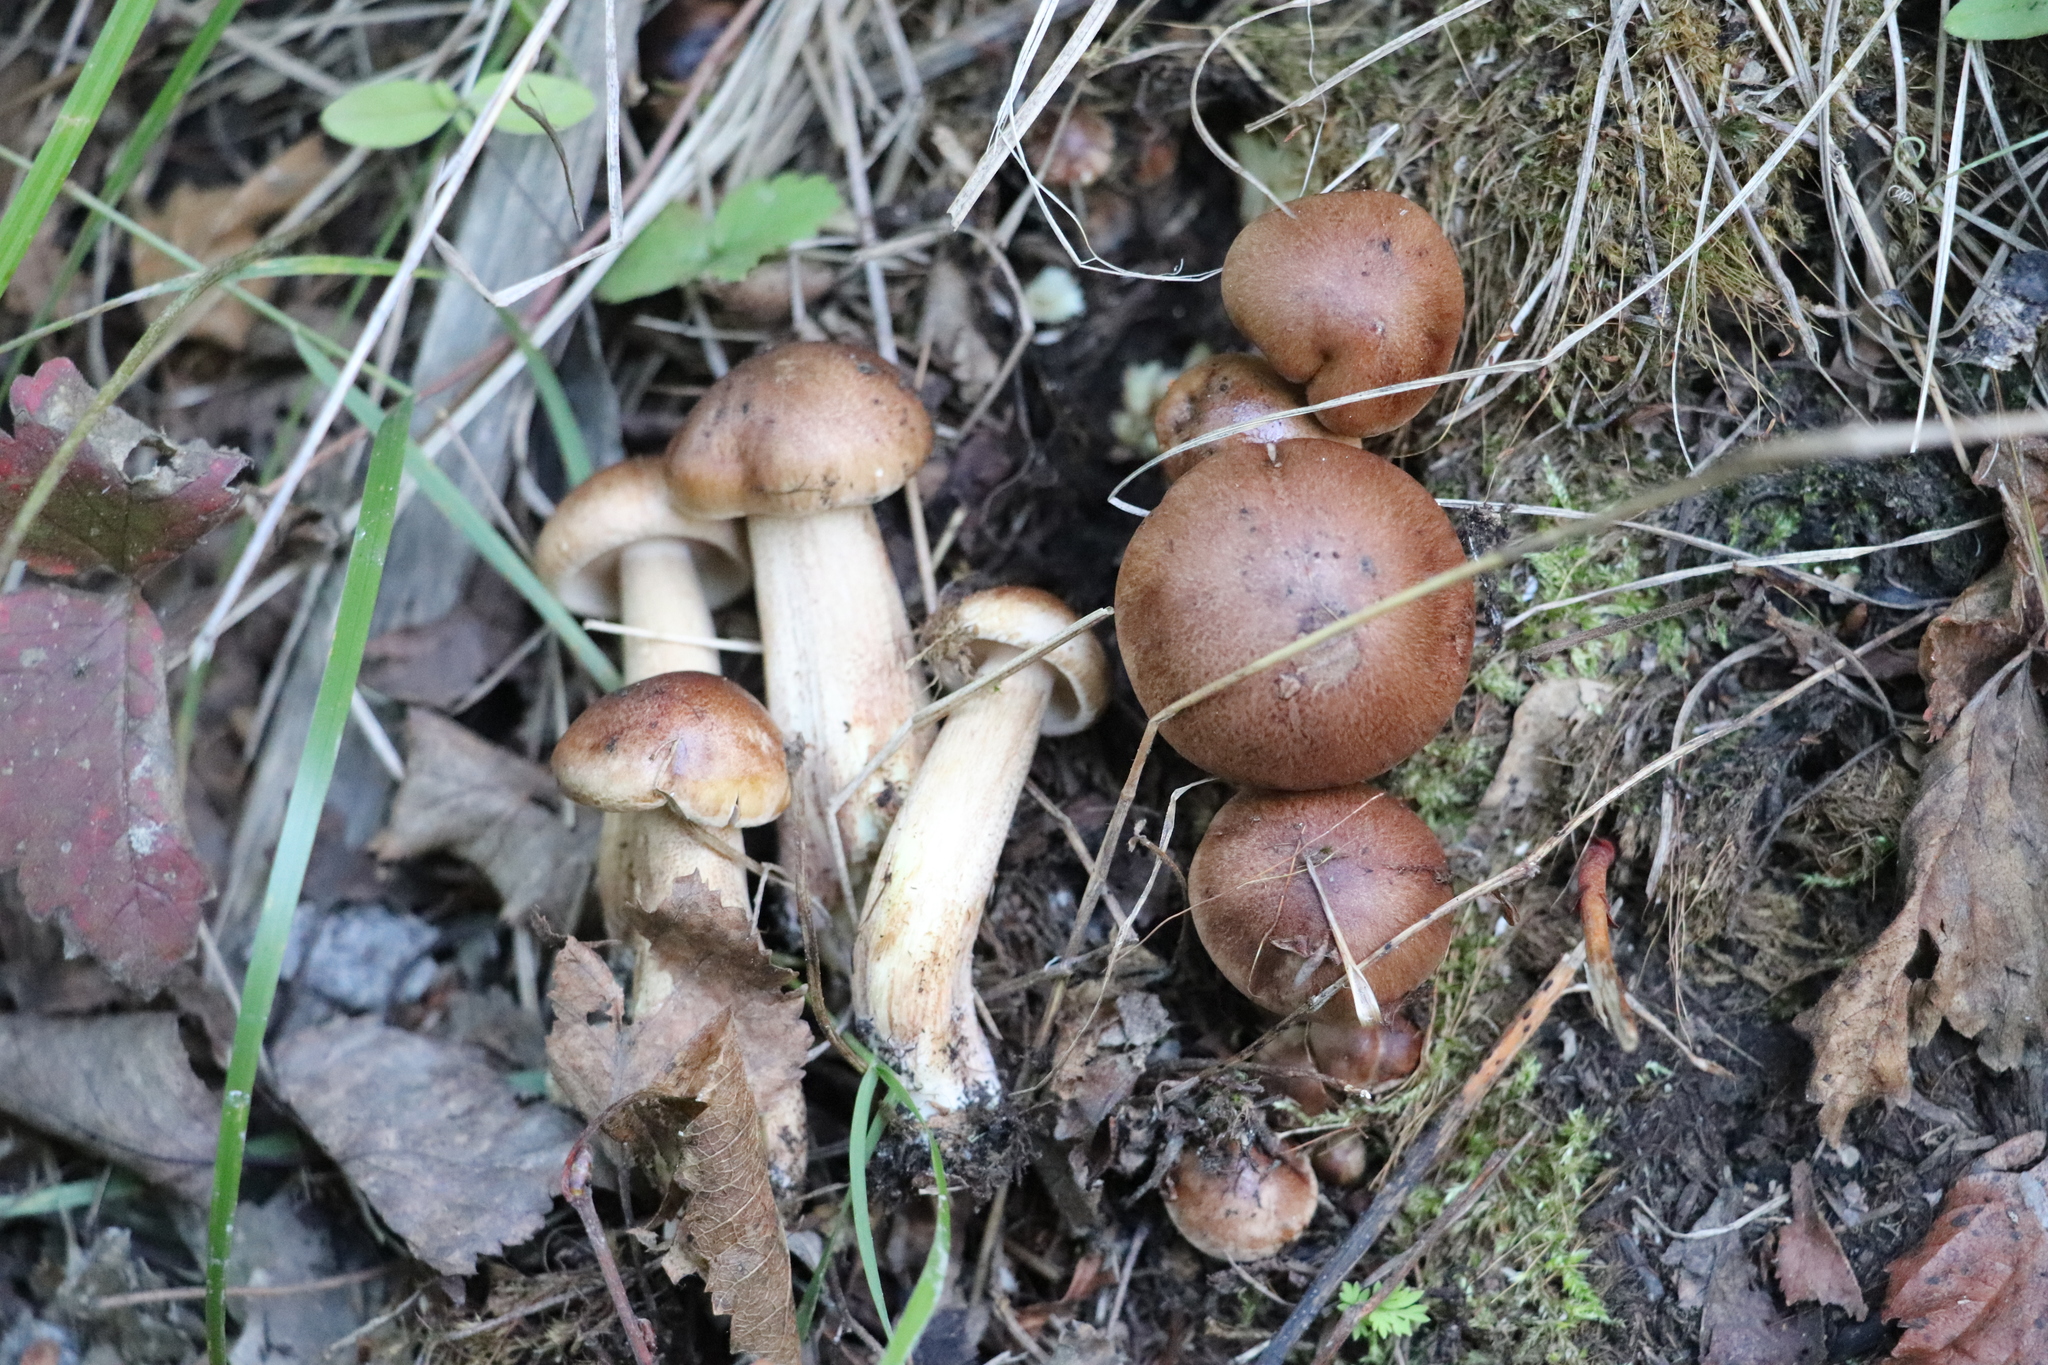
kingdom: Fungi
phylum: Basidiomycota
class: Agaricomycetes
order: Agaricales
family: Tricholomataceae
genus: Tricholoma
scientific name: Tricholoma fulvum
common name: Birch knight
